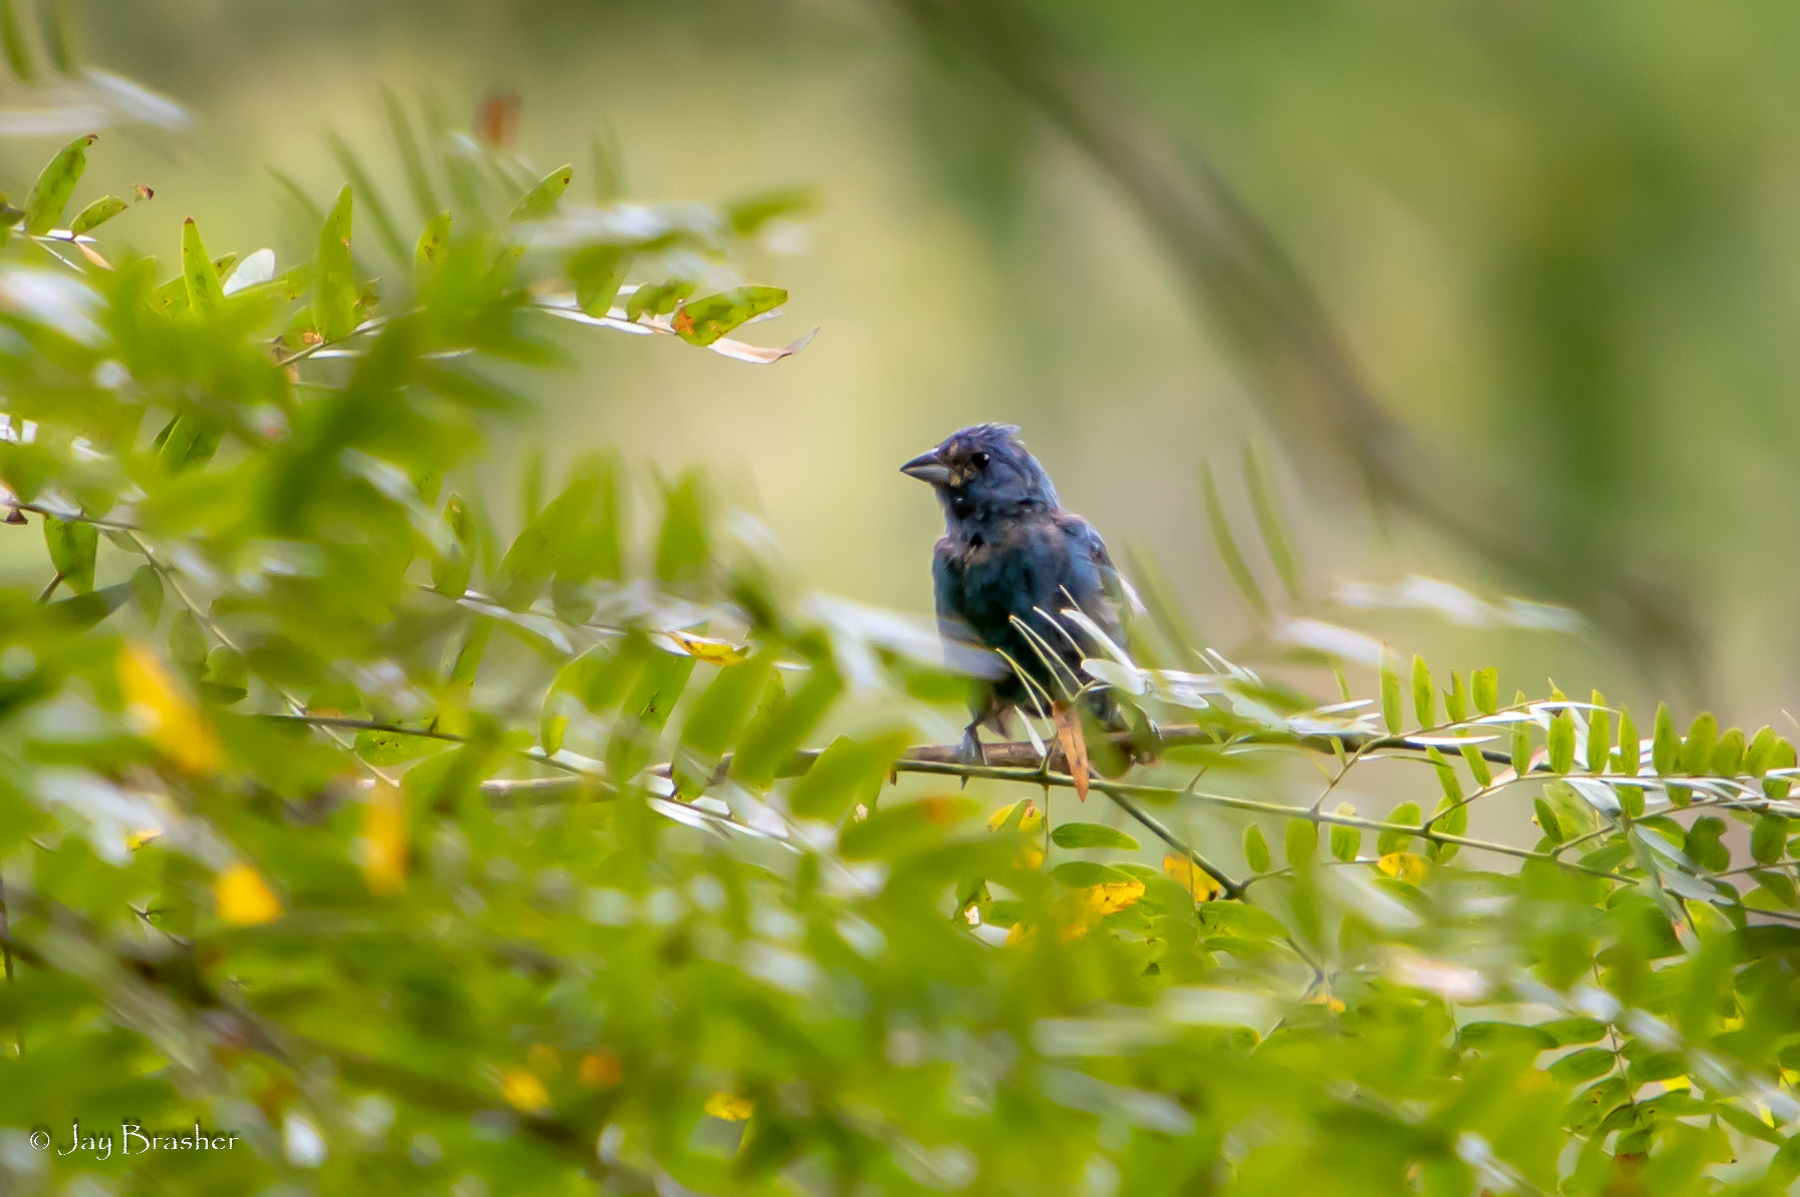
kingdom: Animalia
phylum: Chordata
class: Aves
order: Passeriformes
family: Cardinalidae
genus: Passerina
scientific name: Passerina cyanea
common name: Indigo bunting
